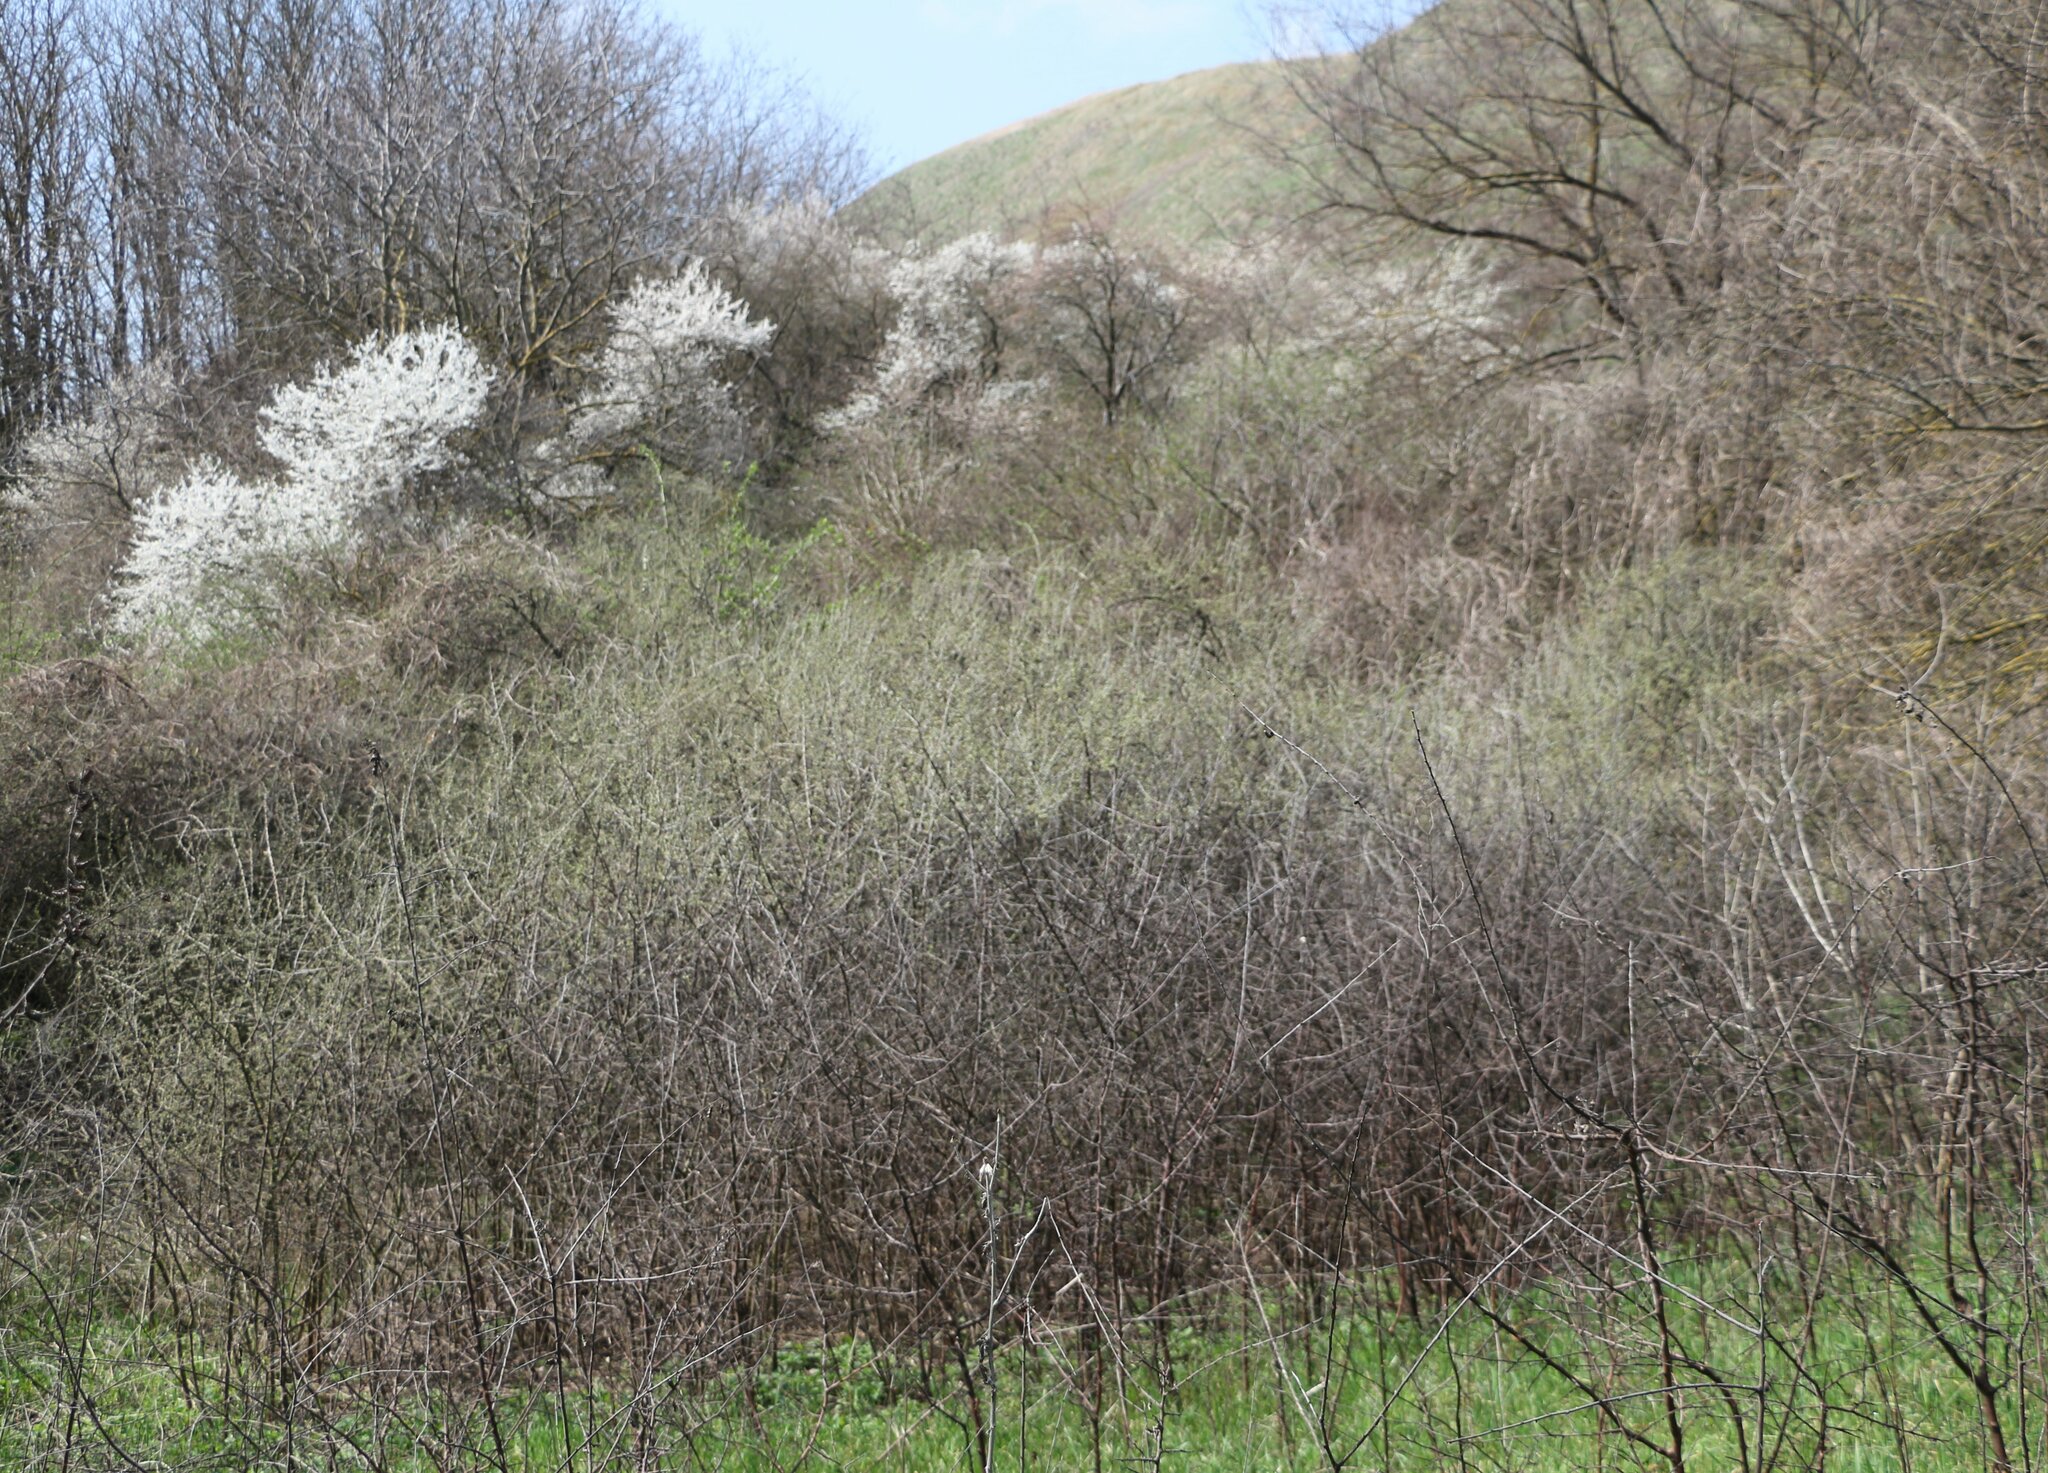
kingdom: Plantae
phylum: Tracheophyta
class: Magnoliopsida
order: Rosales
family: Rosaceae
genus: Prunus
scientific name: Prunus spinosa
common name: Blackthorn
